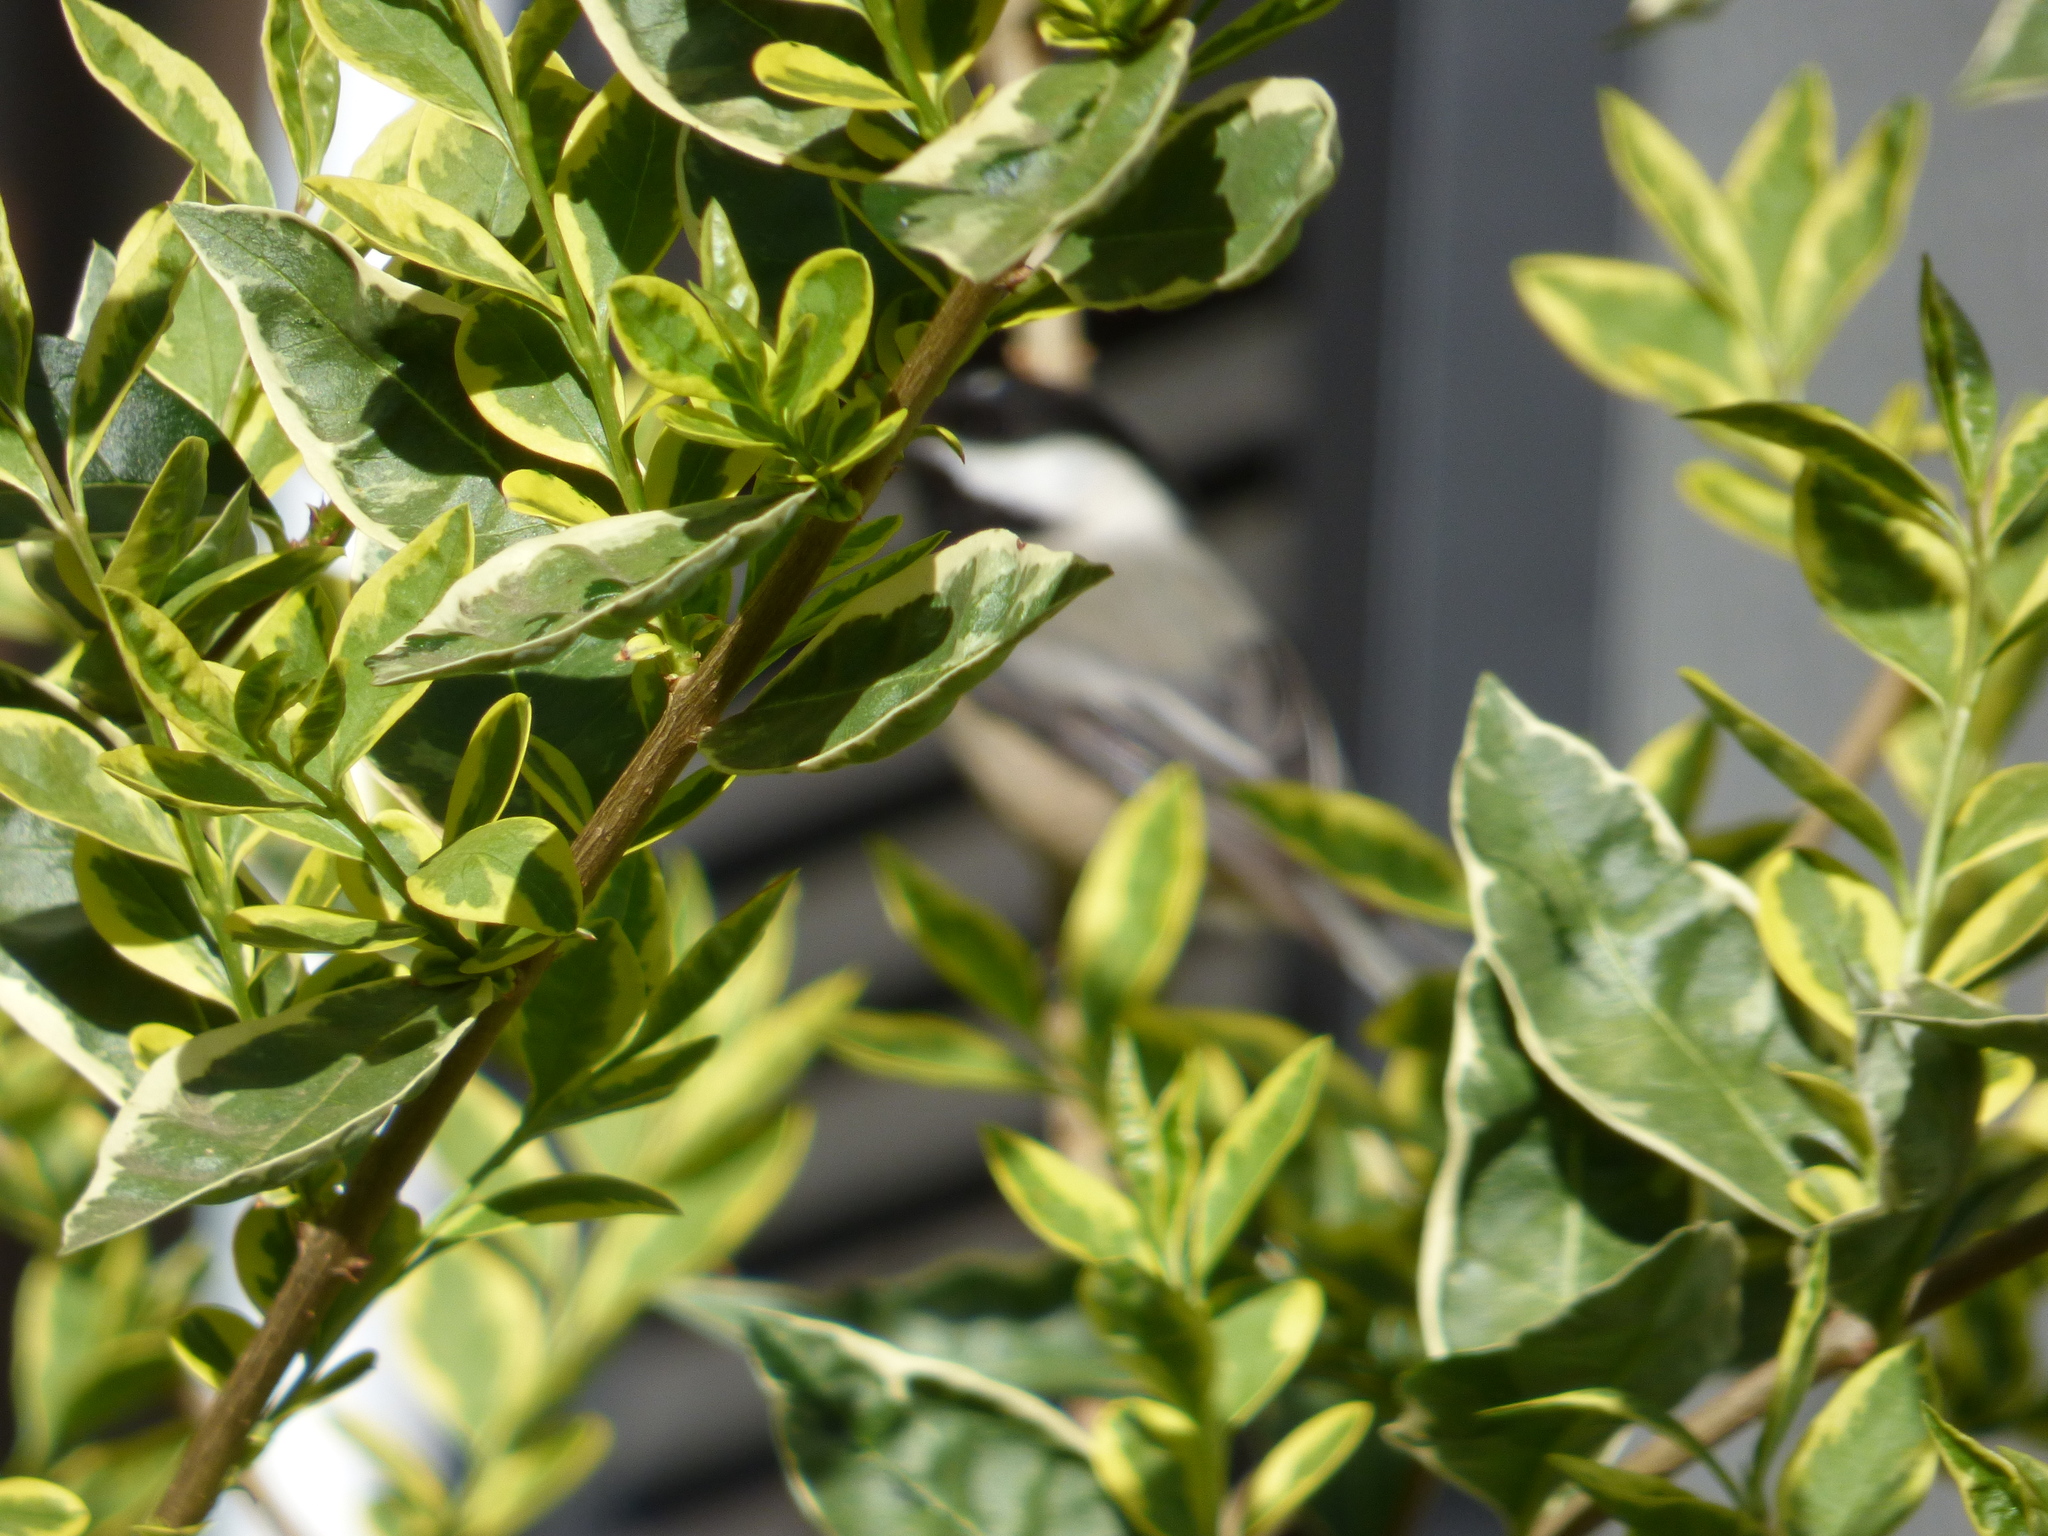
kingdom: Animalia
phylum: Chordata
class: Aves
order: Passeriformes
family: Paridae
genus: Poecile
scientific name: Poecile atricapillus
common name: Black-capped chickadee
